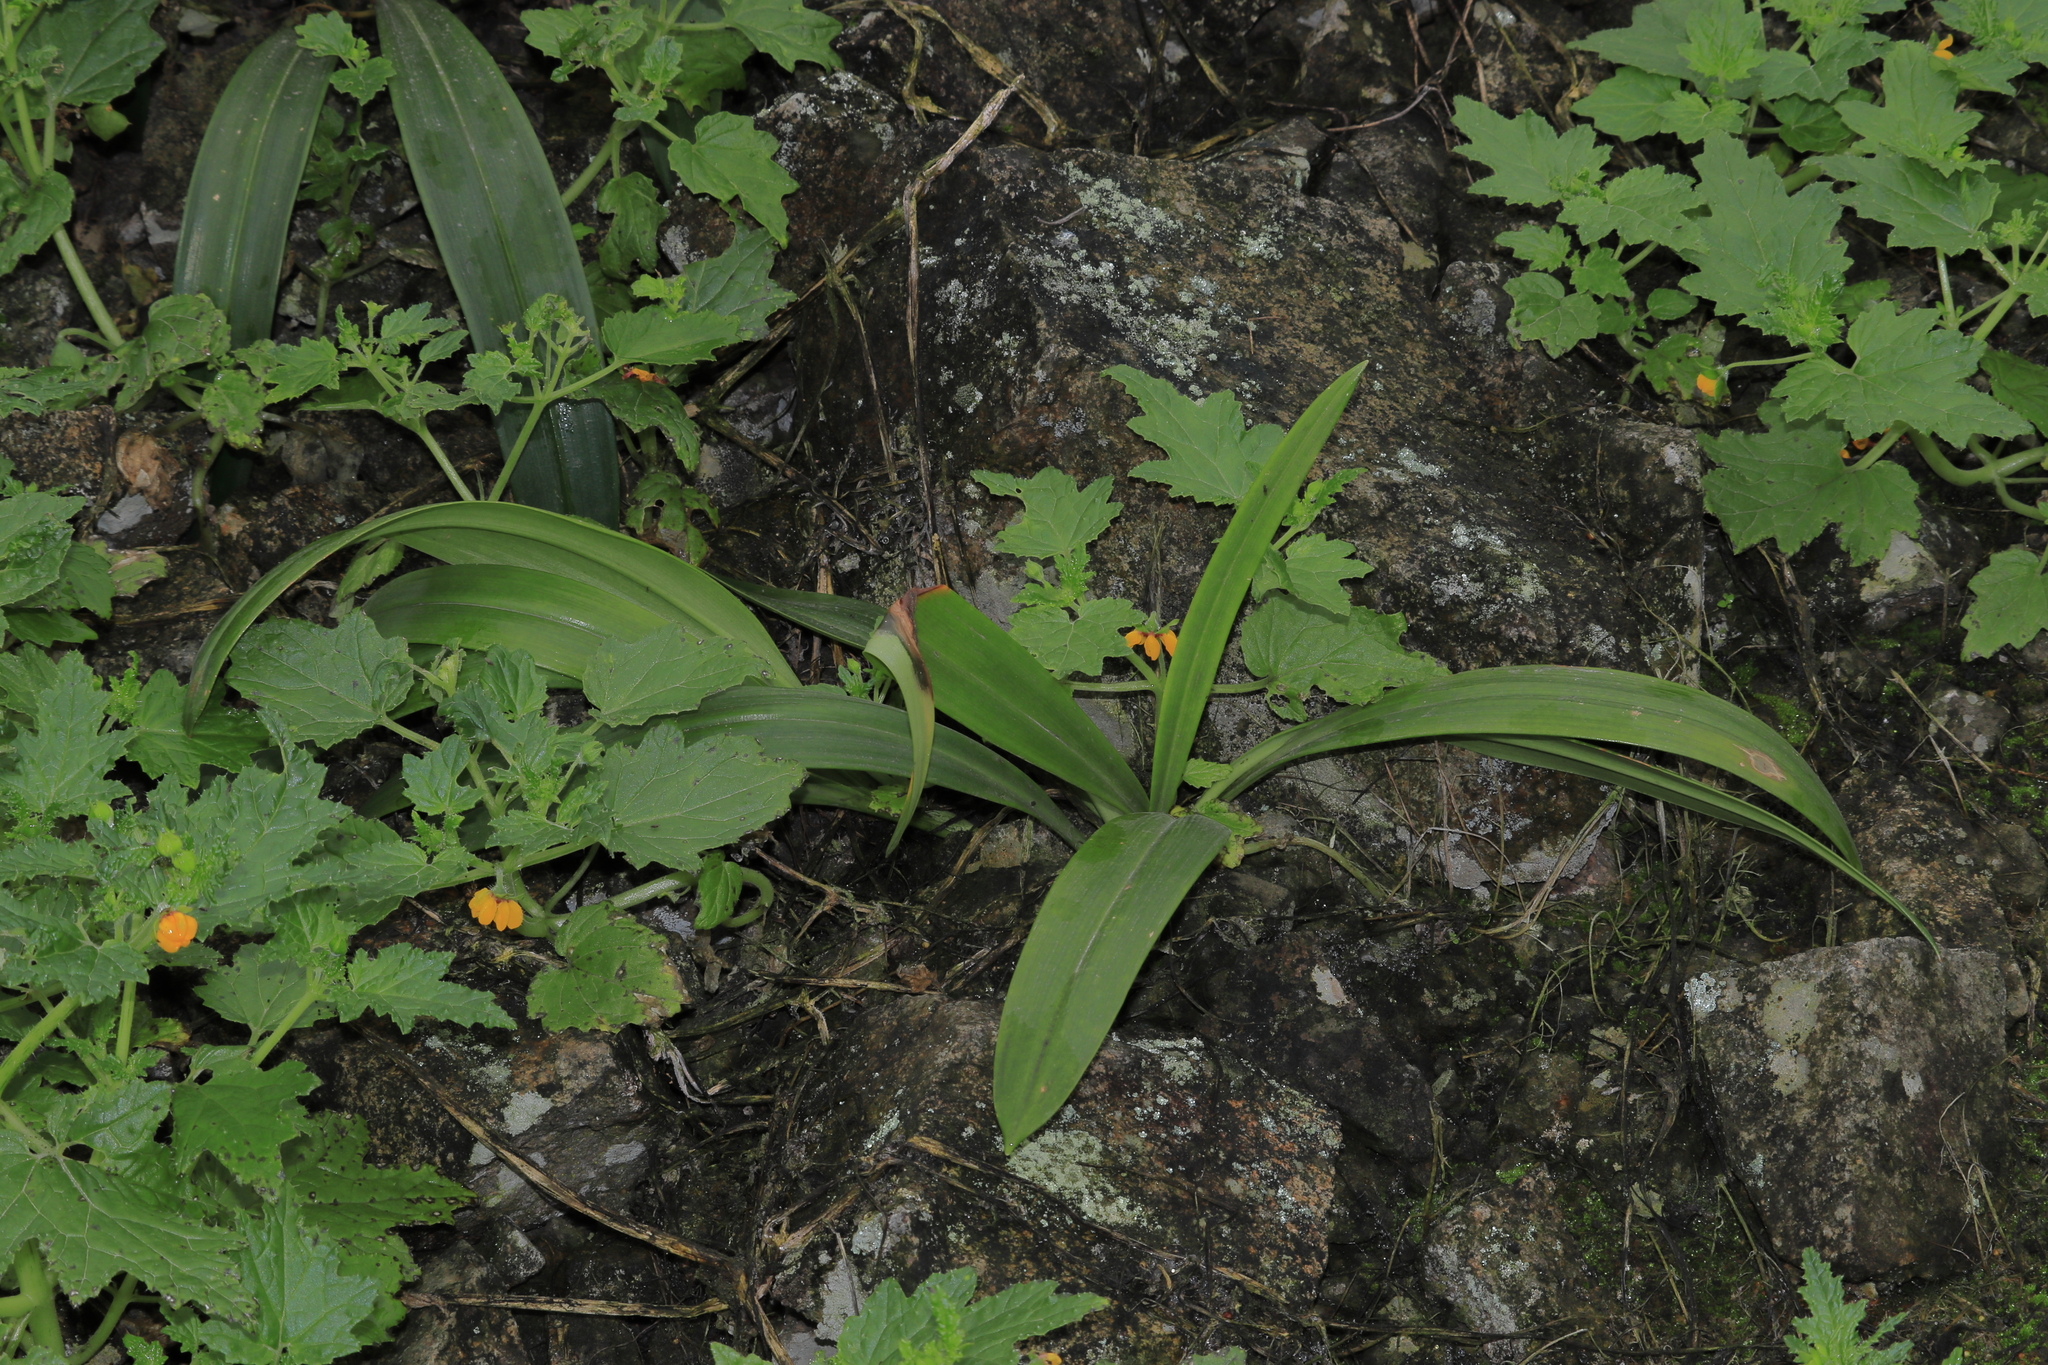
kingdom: Plantae
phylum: Tracheophyta
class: Liliopsida
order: Asparagales
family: Amaryllidaceae
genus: Stenomesson
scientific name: Stenomesson flavum
